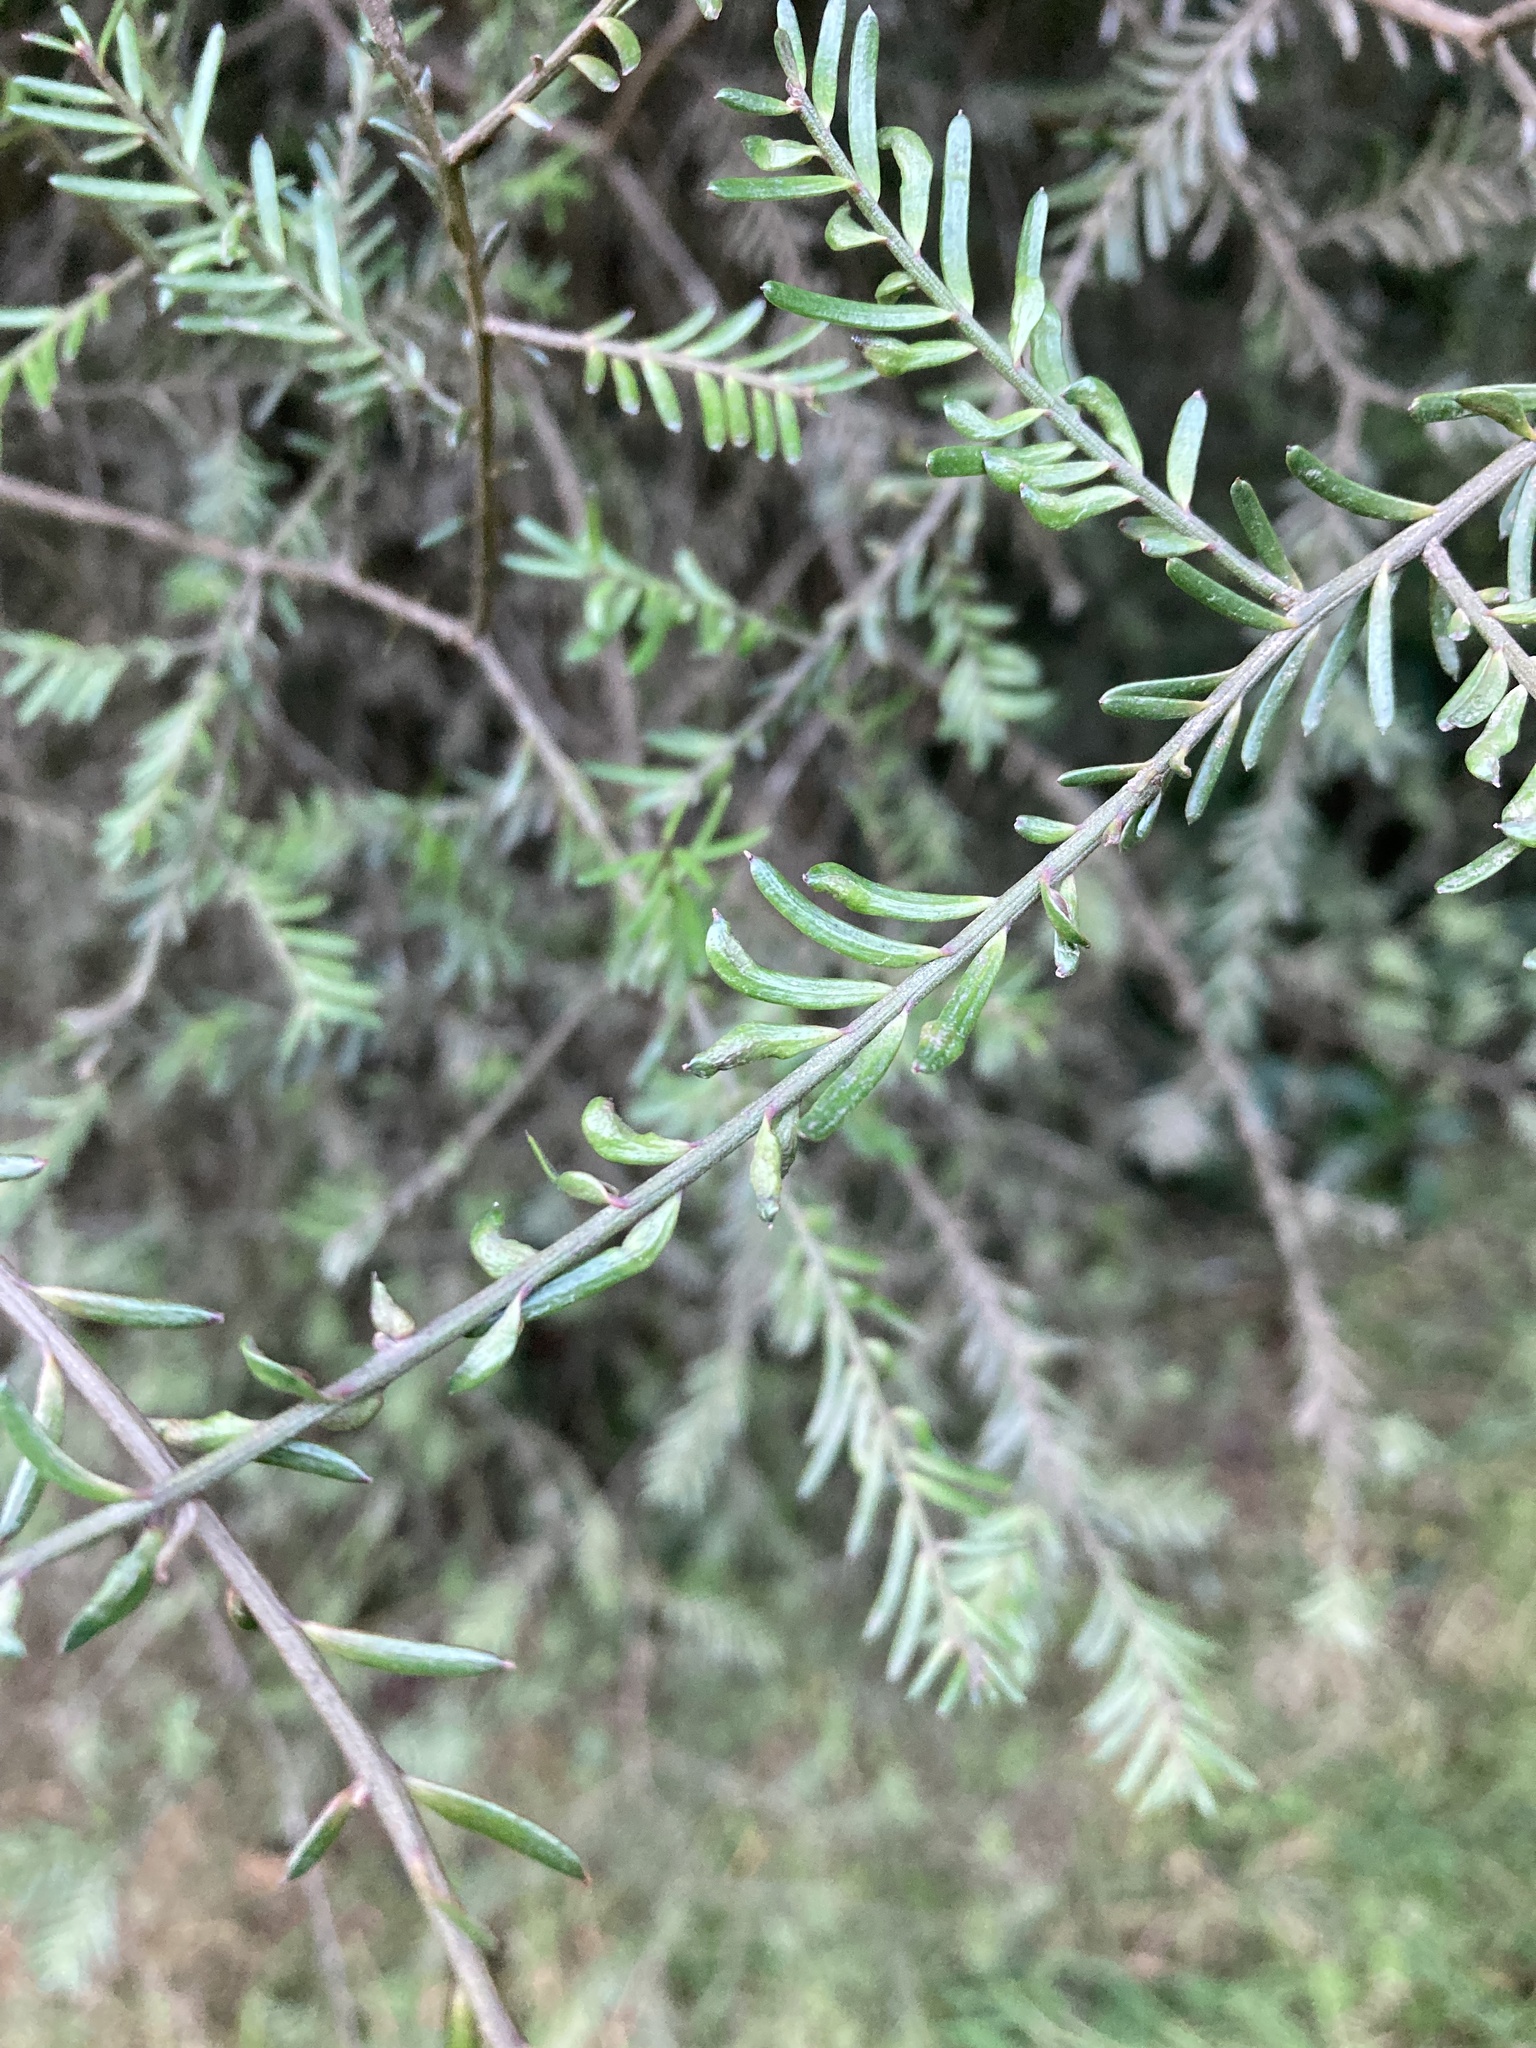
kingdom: Plantae
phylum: Tracheophyta
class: Pinopsida
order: Pinales
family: Podocarpaceae
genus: Prumnopitys
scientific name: Prumnopitys taxifolia
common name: Matai
